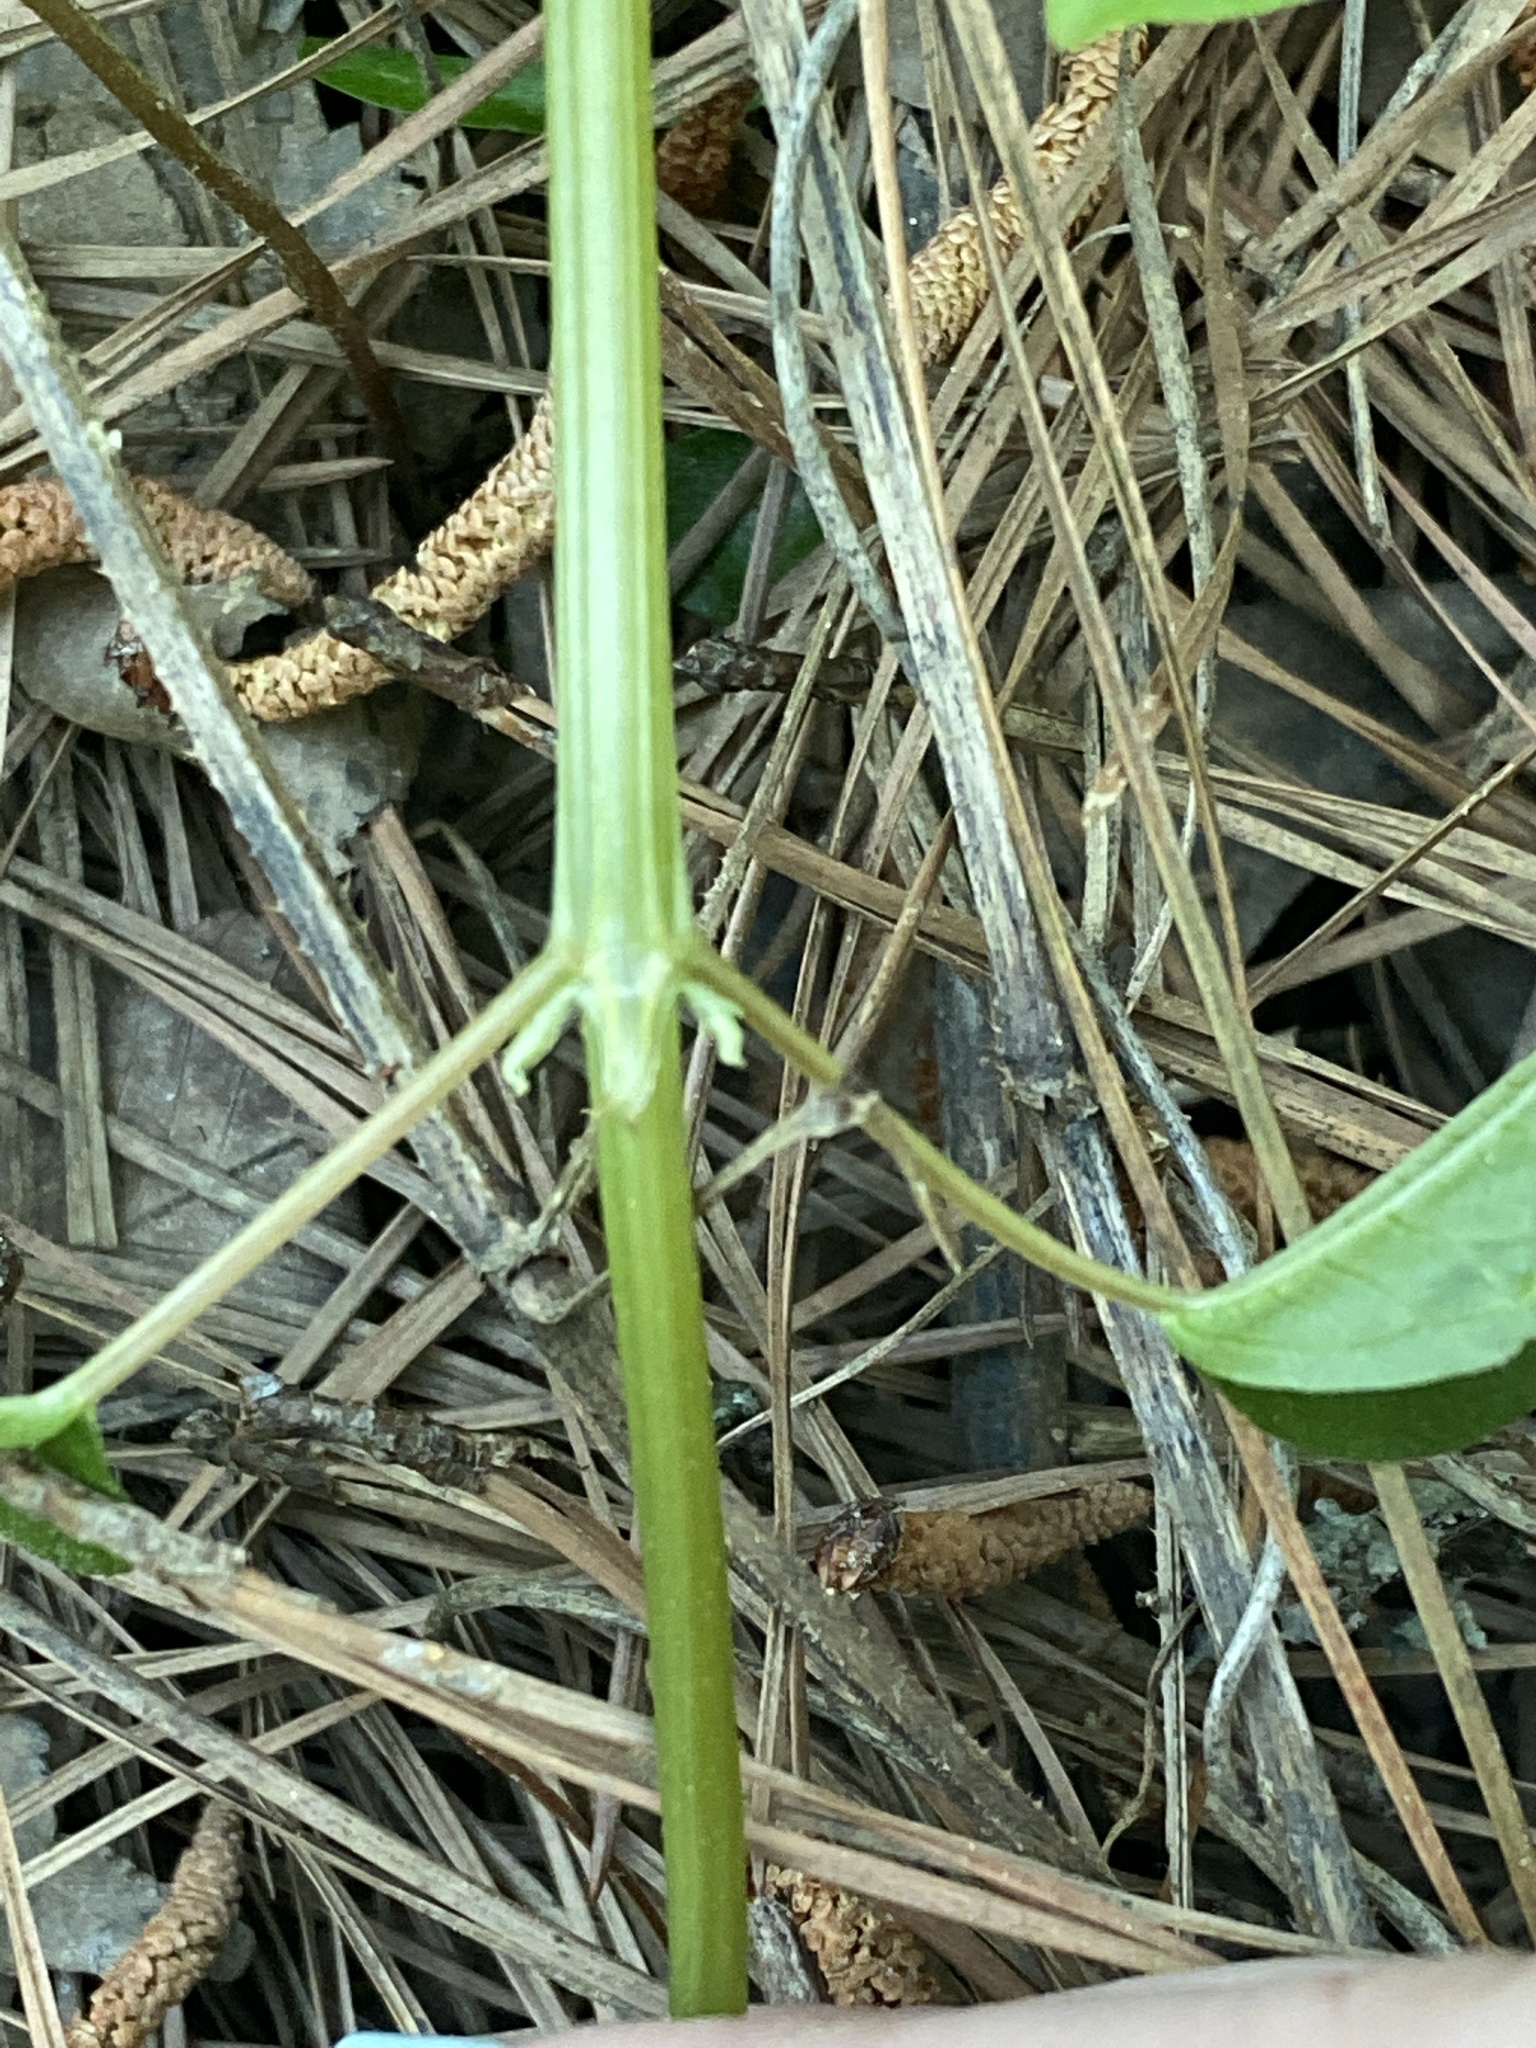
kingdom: Plantae
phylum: Tracheophyta
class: Magnoliopsida
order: Rosales
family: Urticaceae
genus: Boehmeria
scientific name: Boehmeria cylindrica
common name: Bog-hemp
